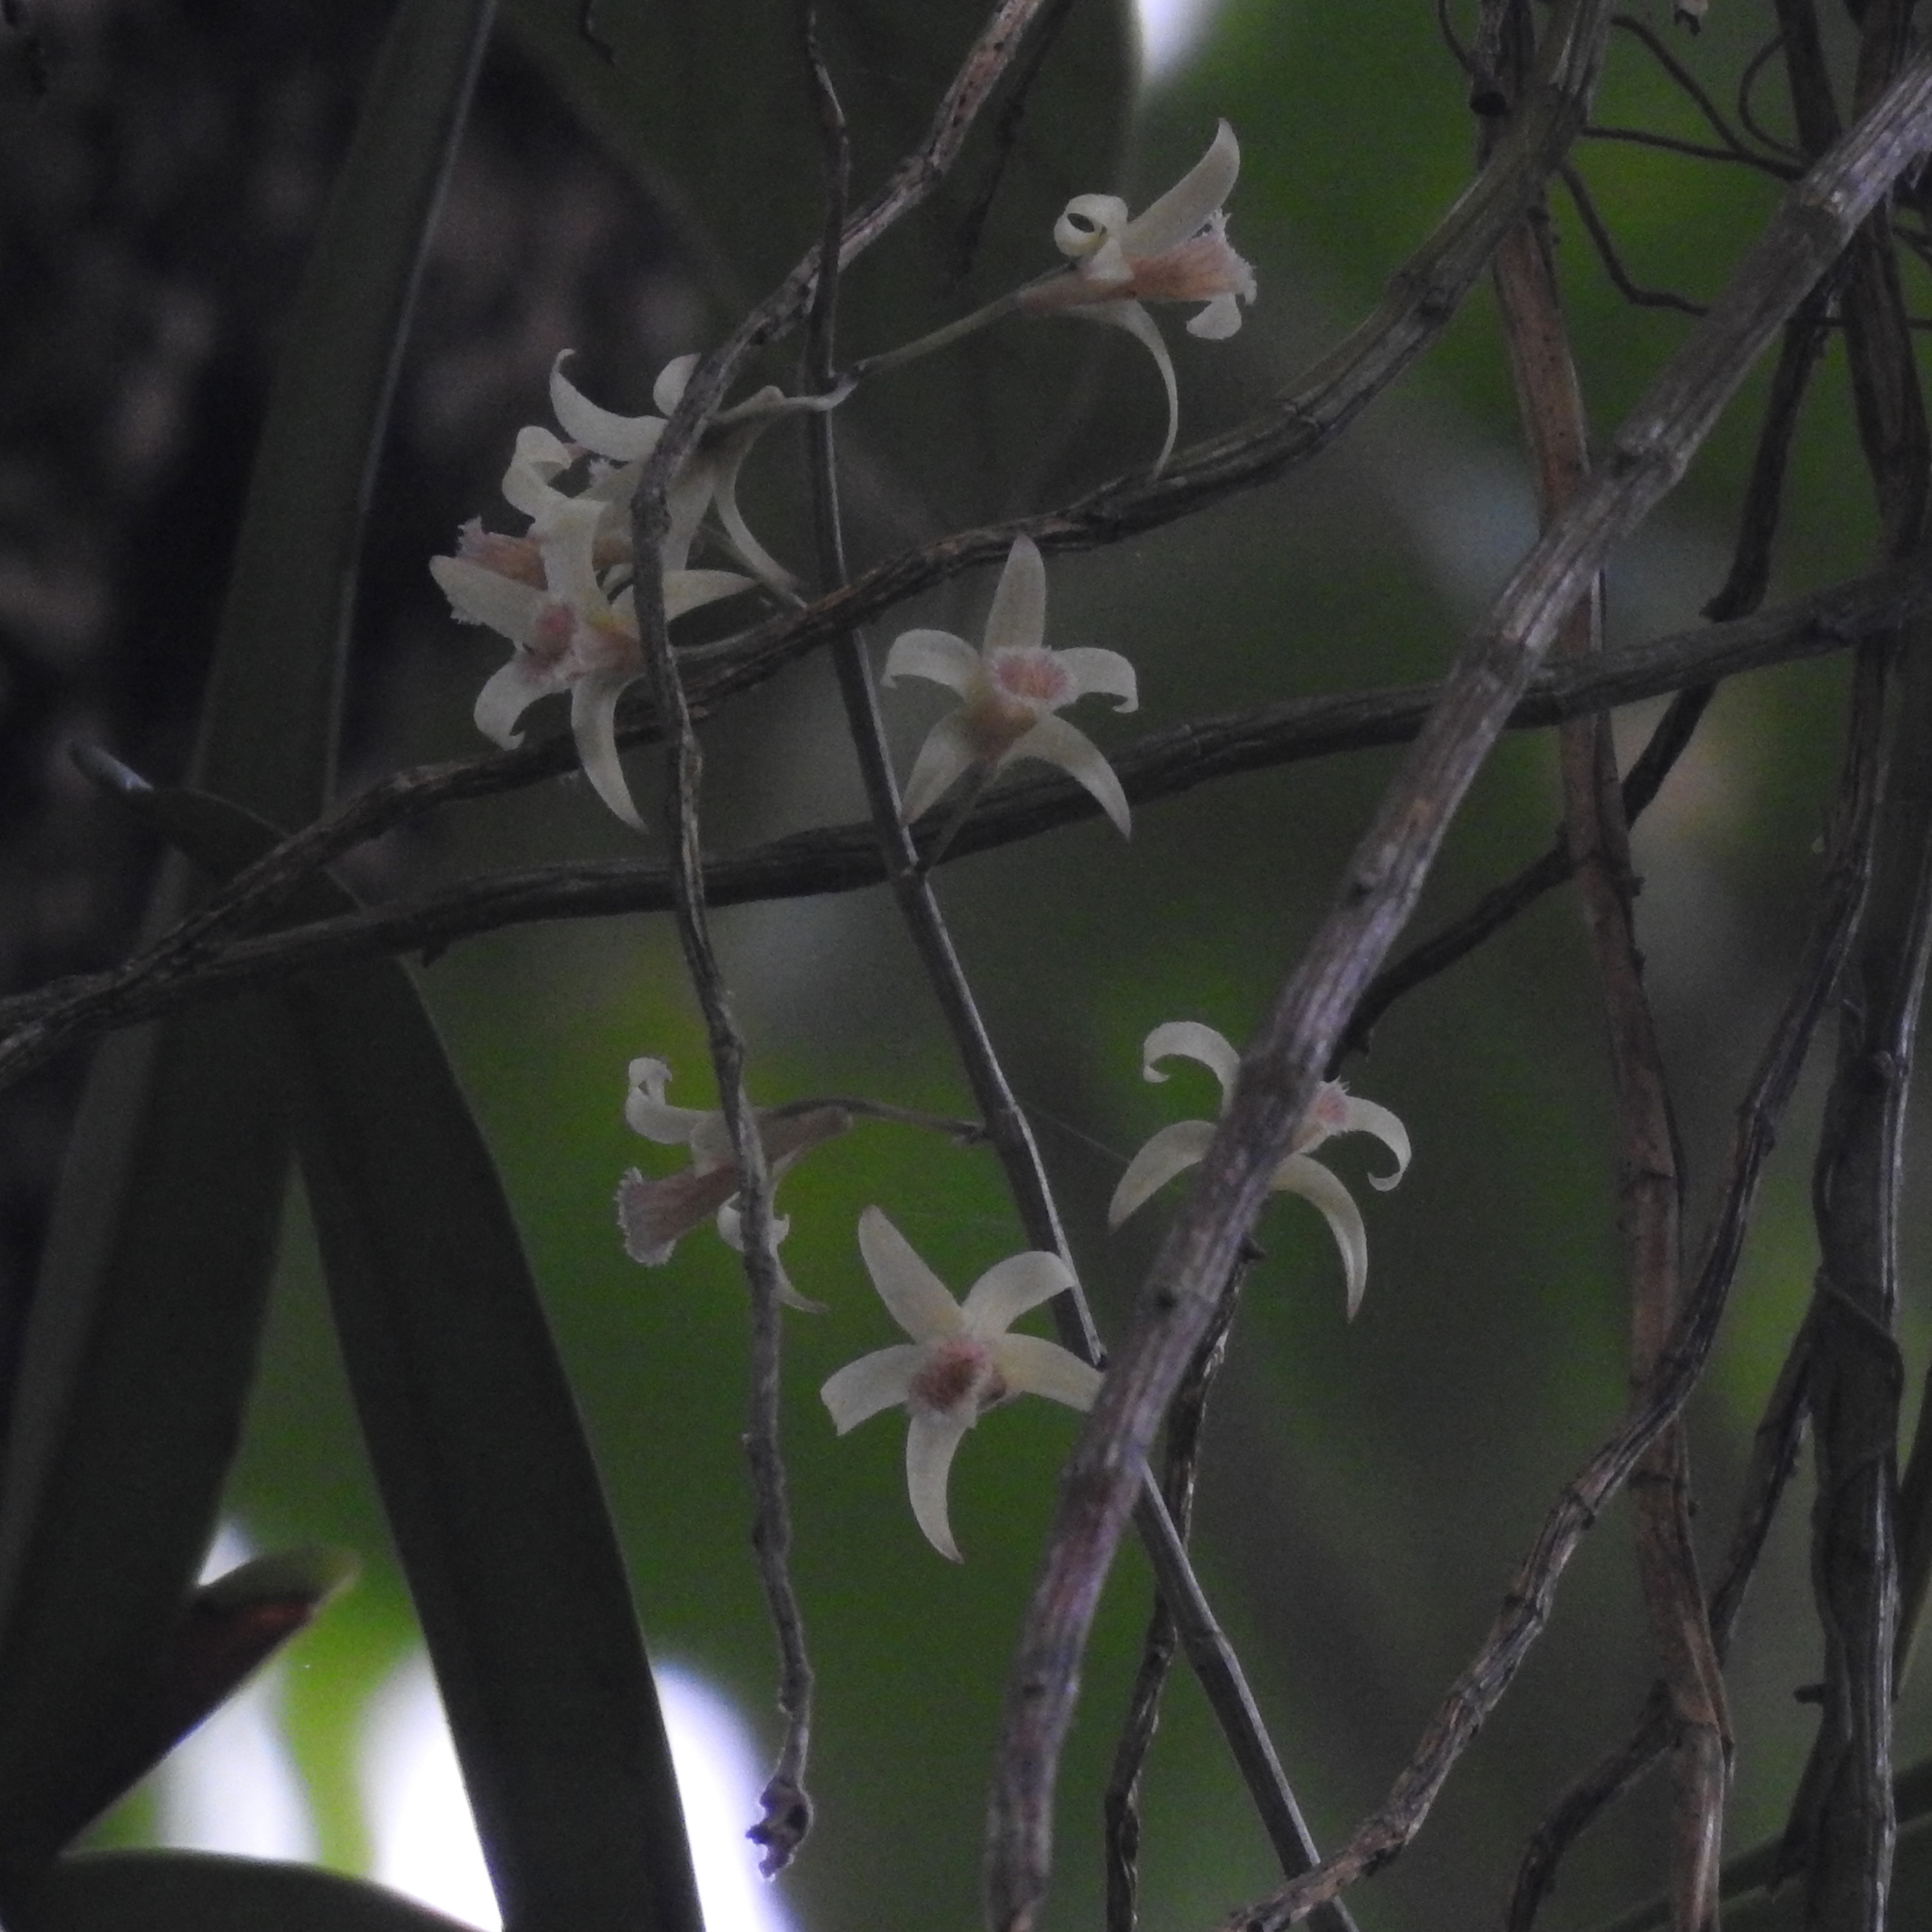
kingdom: Plantae
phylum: Tracheophyta
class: Liliopsida
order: Asparagales
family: Orchidaceae
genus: Dendrobium
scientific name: Dendrobium macrostachyum
